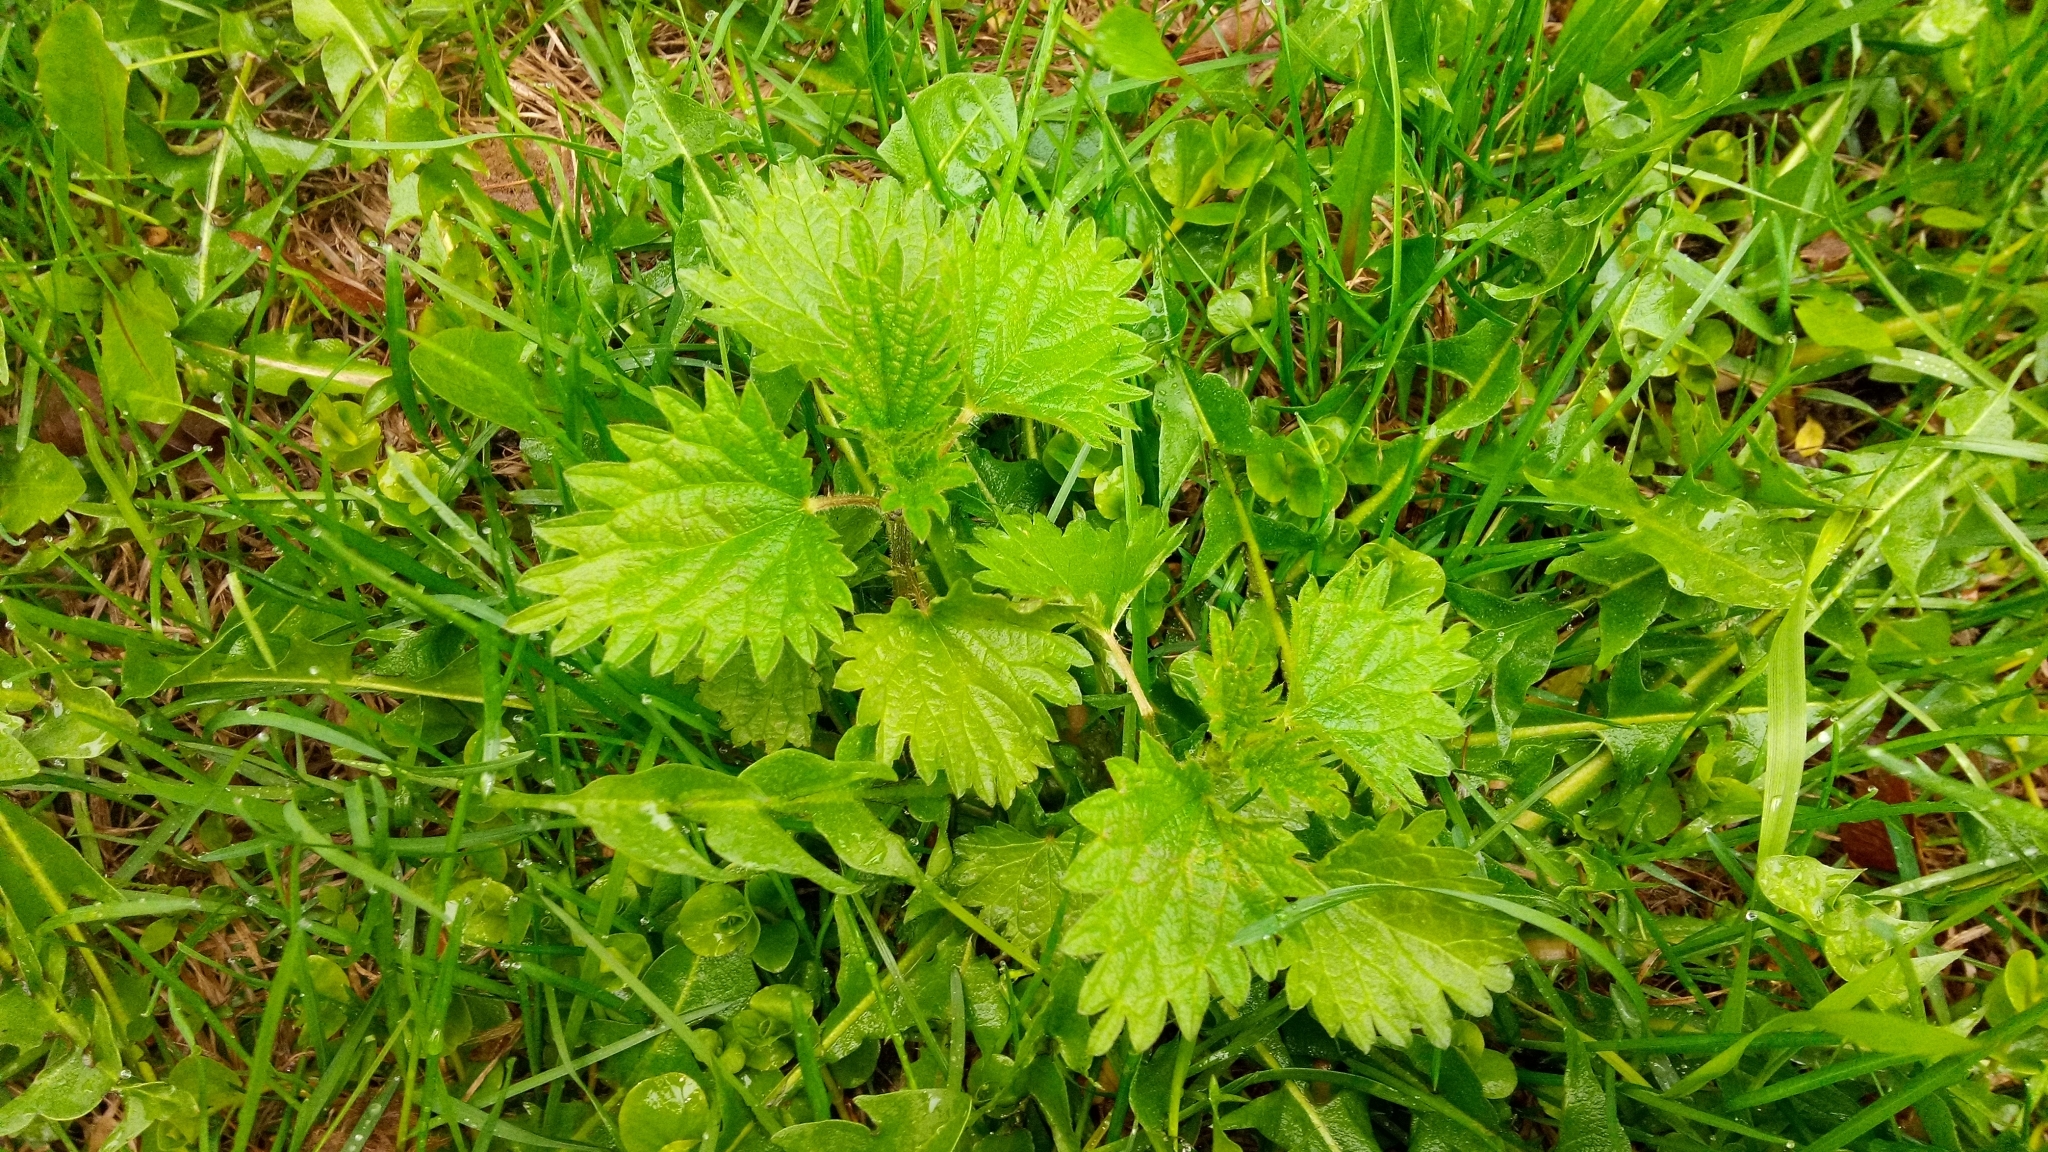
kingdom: Plantae
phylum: Tracheophyta
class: Magnoliopsida
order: Rosales
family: Urticaceae
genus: Urtica
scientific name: Urtica dioica
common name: Common nettle
